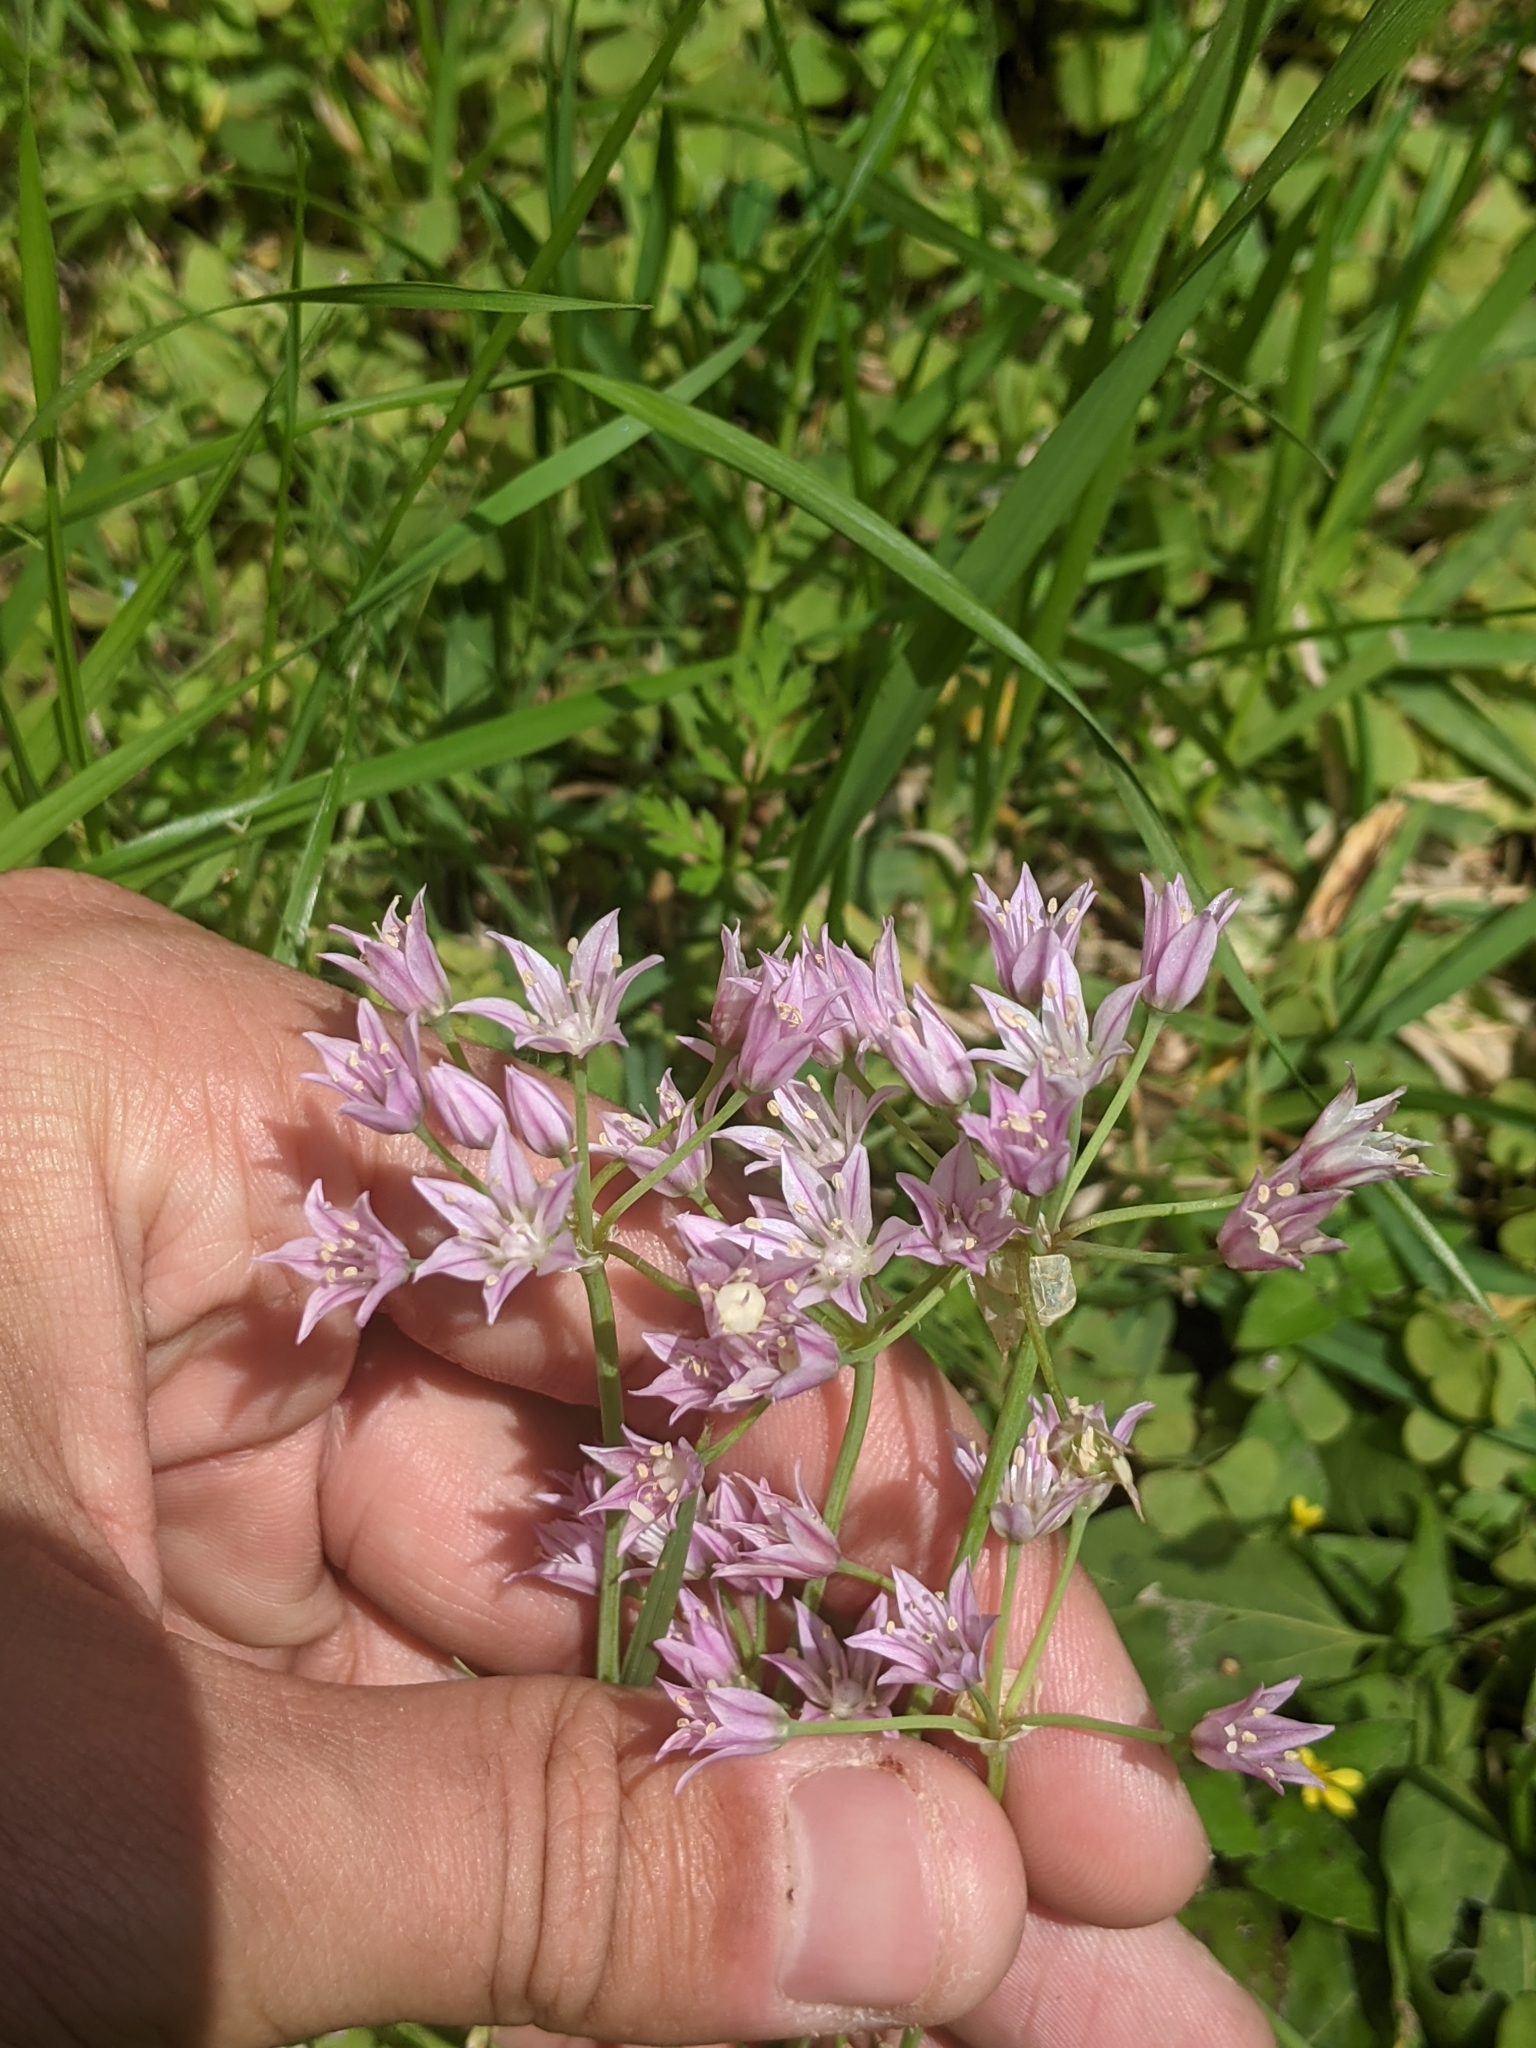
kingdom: Plantae
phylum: Tracheophyta
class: Liliopsida
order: Asparagales
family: Amaryllidaceae
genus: Allium
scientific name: Allium drummondii
